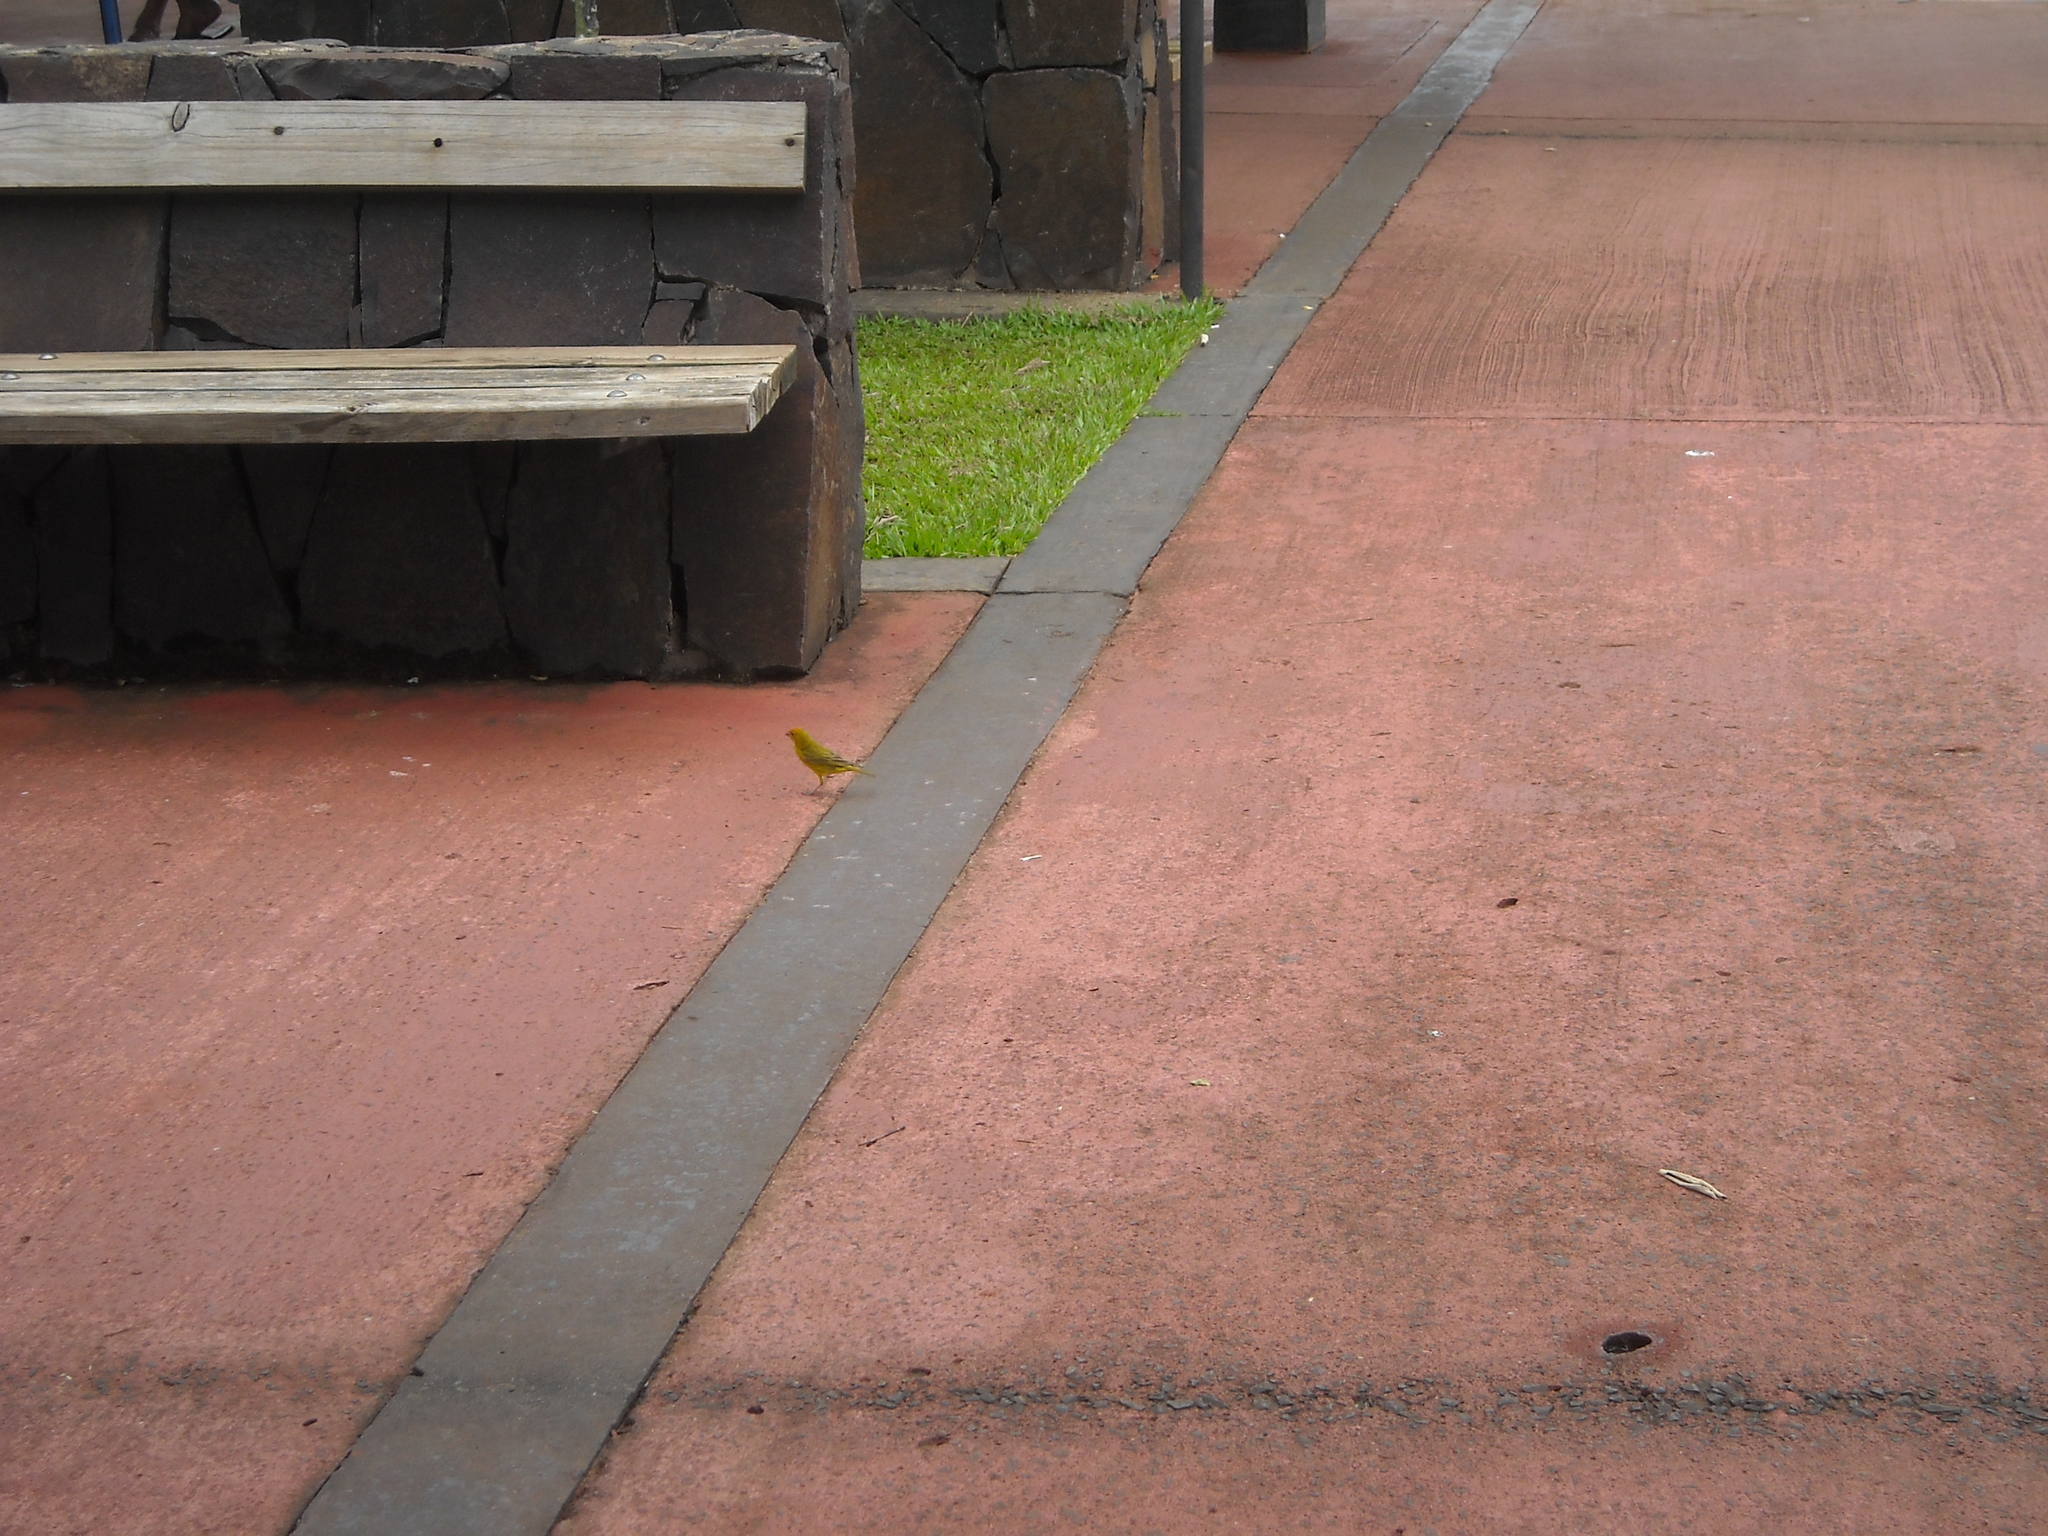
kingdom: Animalia
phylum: Chordata
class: Aves
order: Passeriformes
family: Thraupidae
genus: Sicalis
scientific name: Sicalis flaveola
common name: Saffron finch
